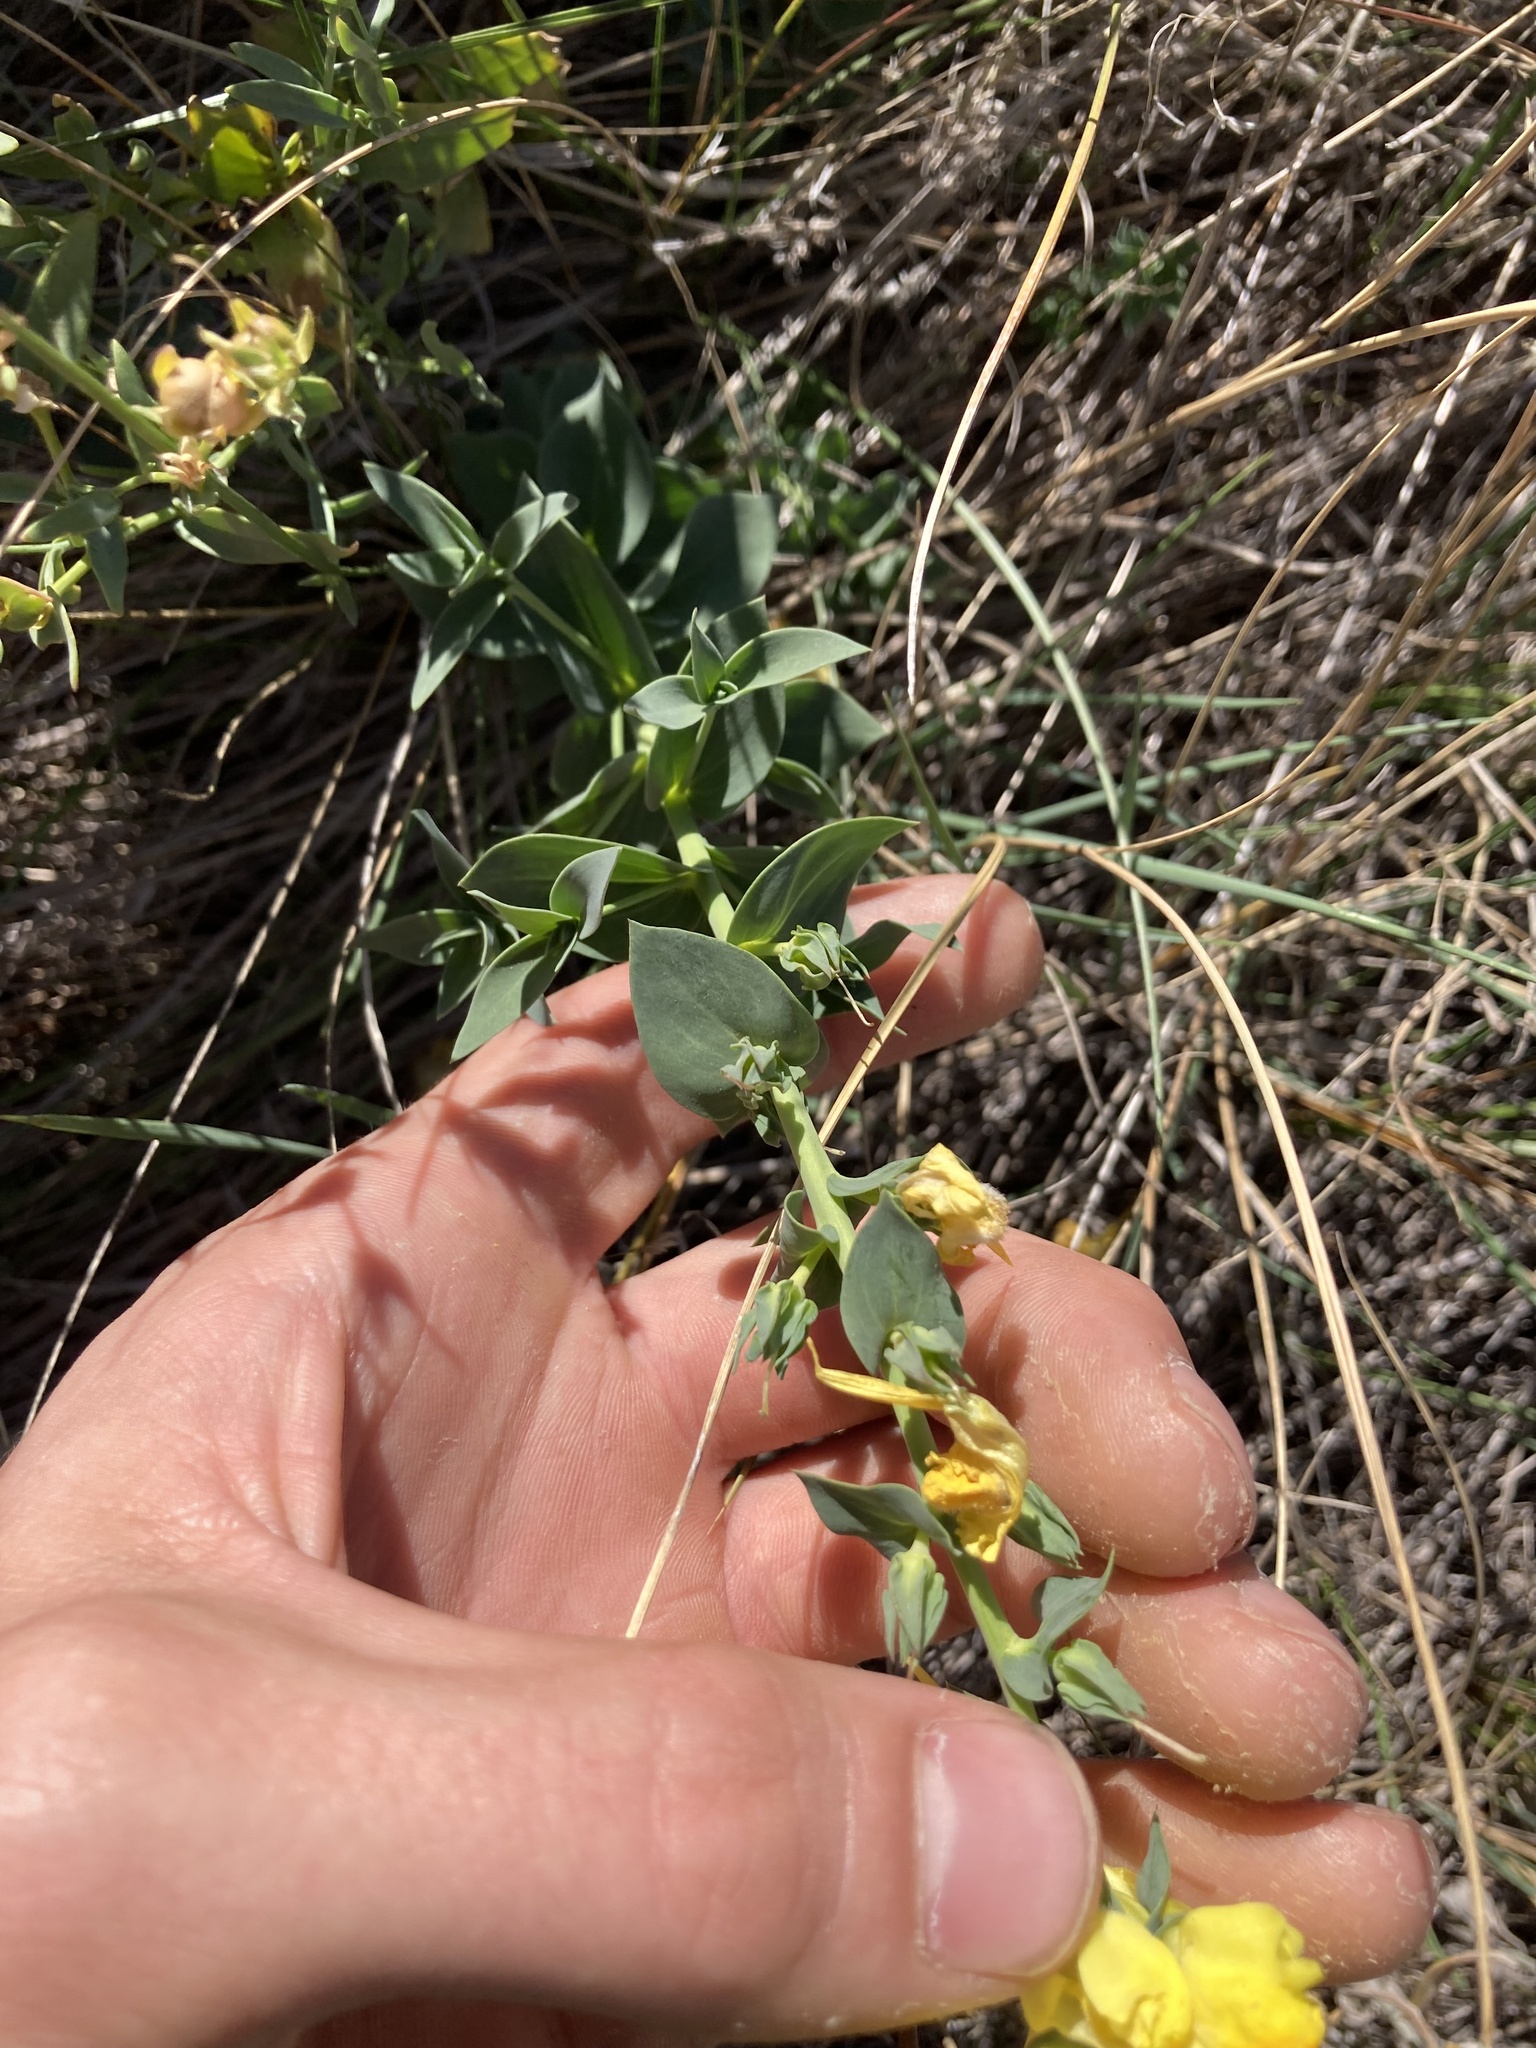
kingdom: Plantae
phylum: Tracheophyta
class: Magnoliopsida
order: Lamiales
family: Plantaginaceae
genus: Linaria
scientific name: Linaria dalmatica
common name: Dalmatian toadflax
